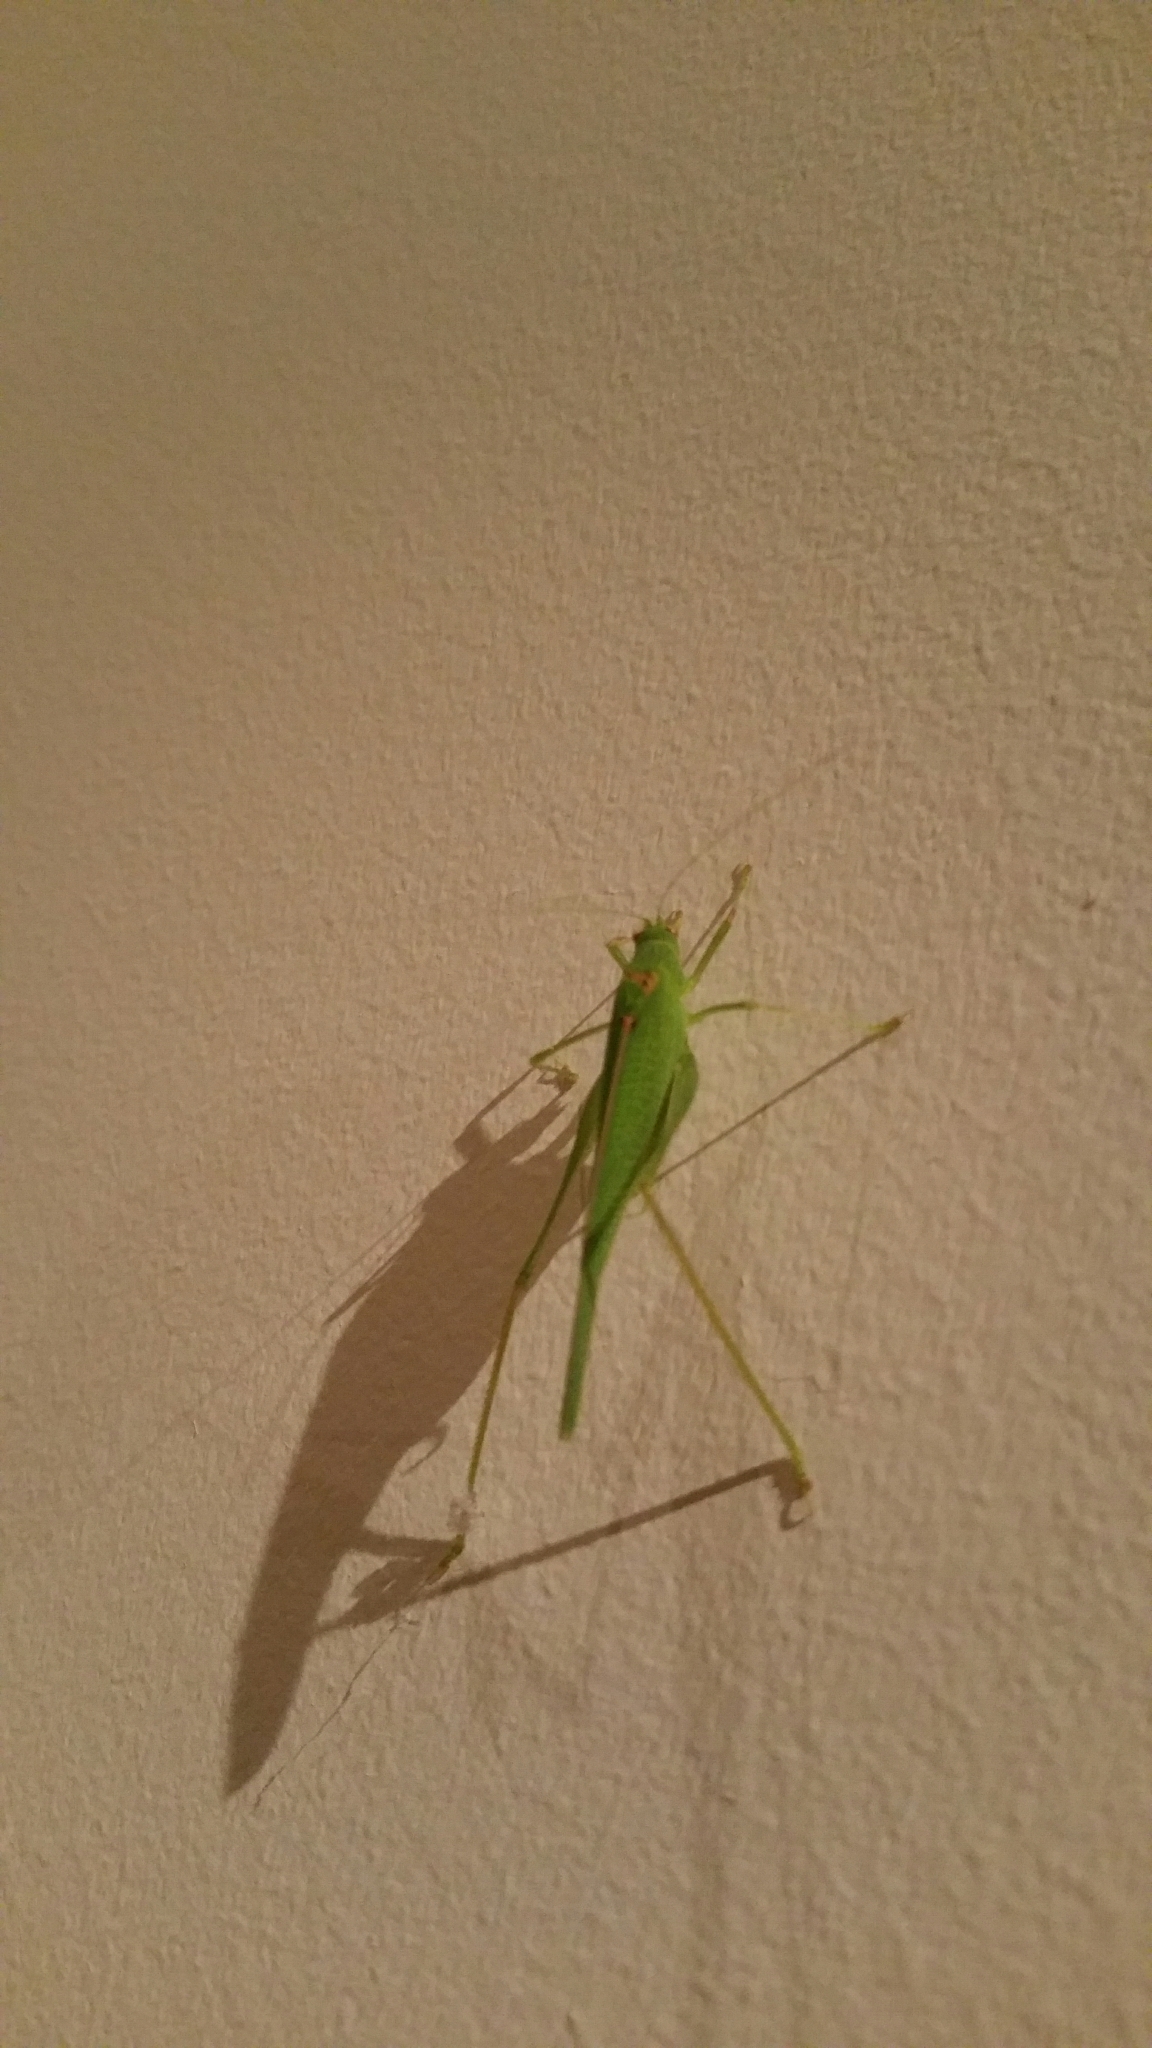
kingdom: Animalia
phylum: Arthropoda
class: Insecta
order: Orthoptera
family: Tettigoniidae
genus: Phaneroptera
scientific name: Phaneroptera nana
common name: Southern sickle bush-cricket
